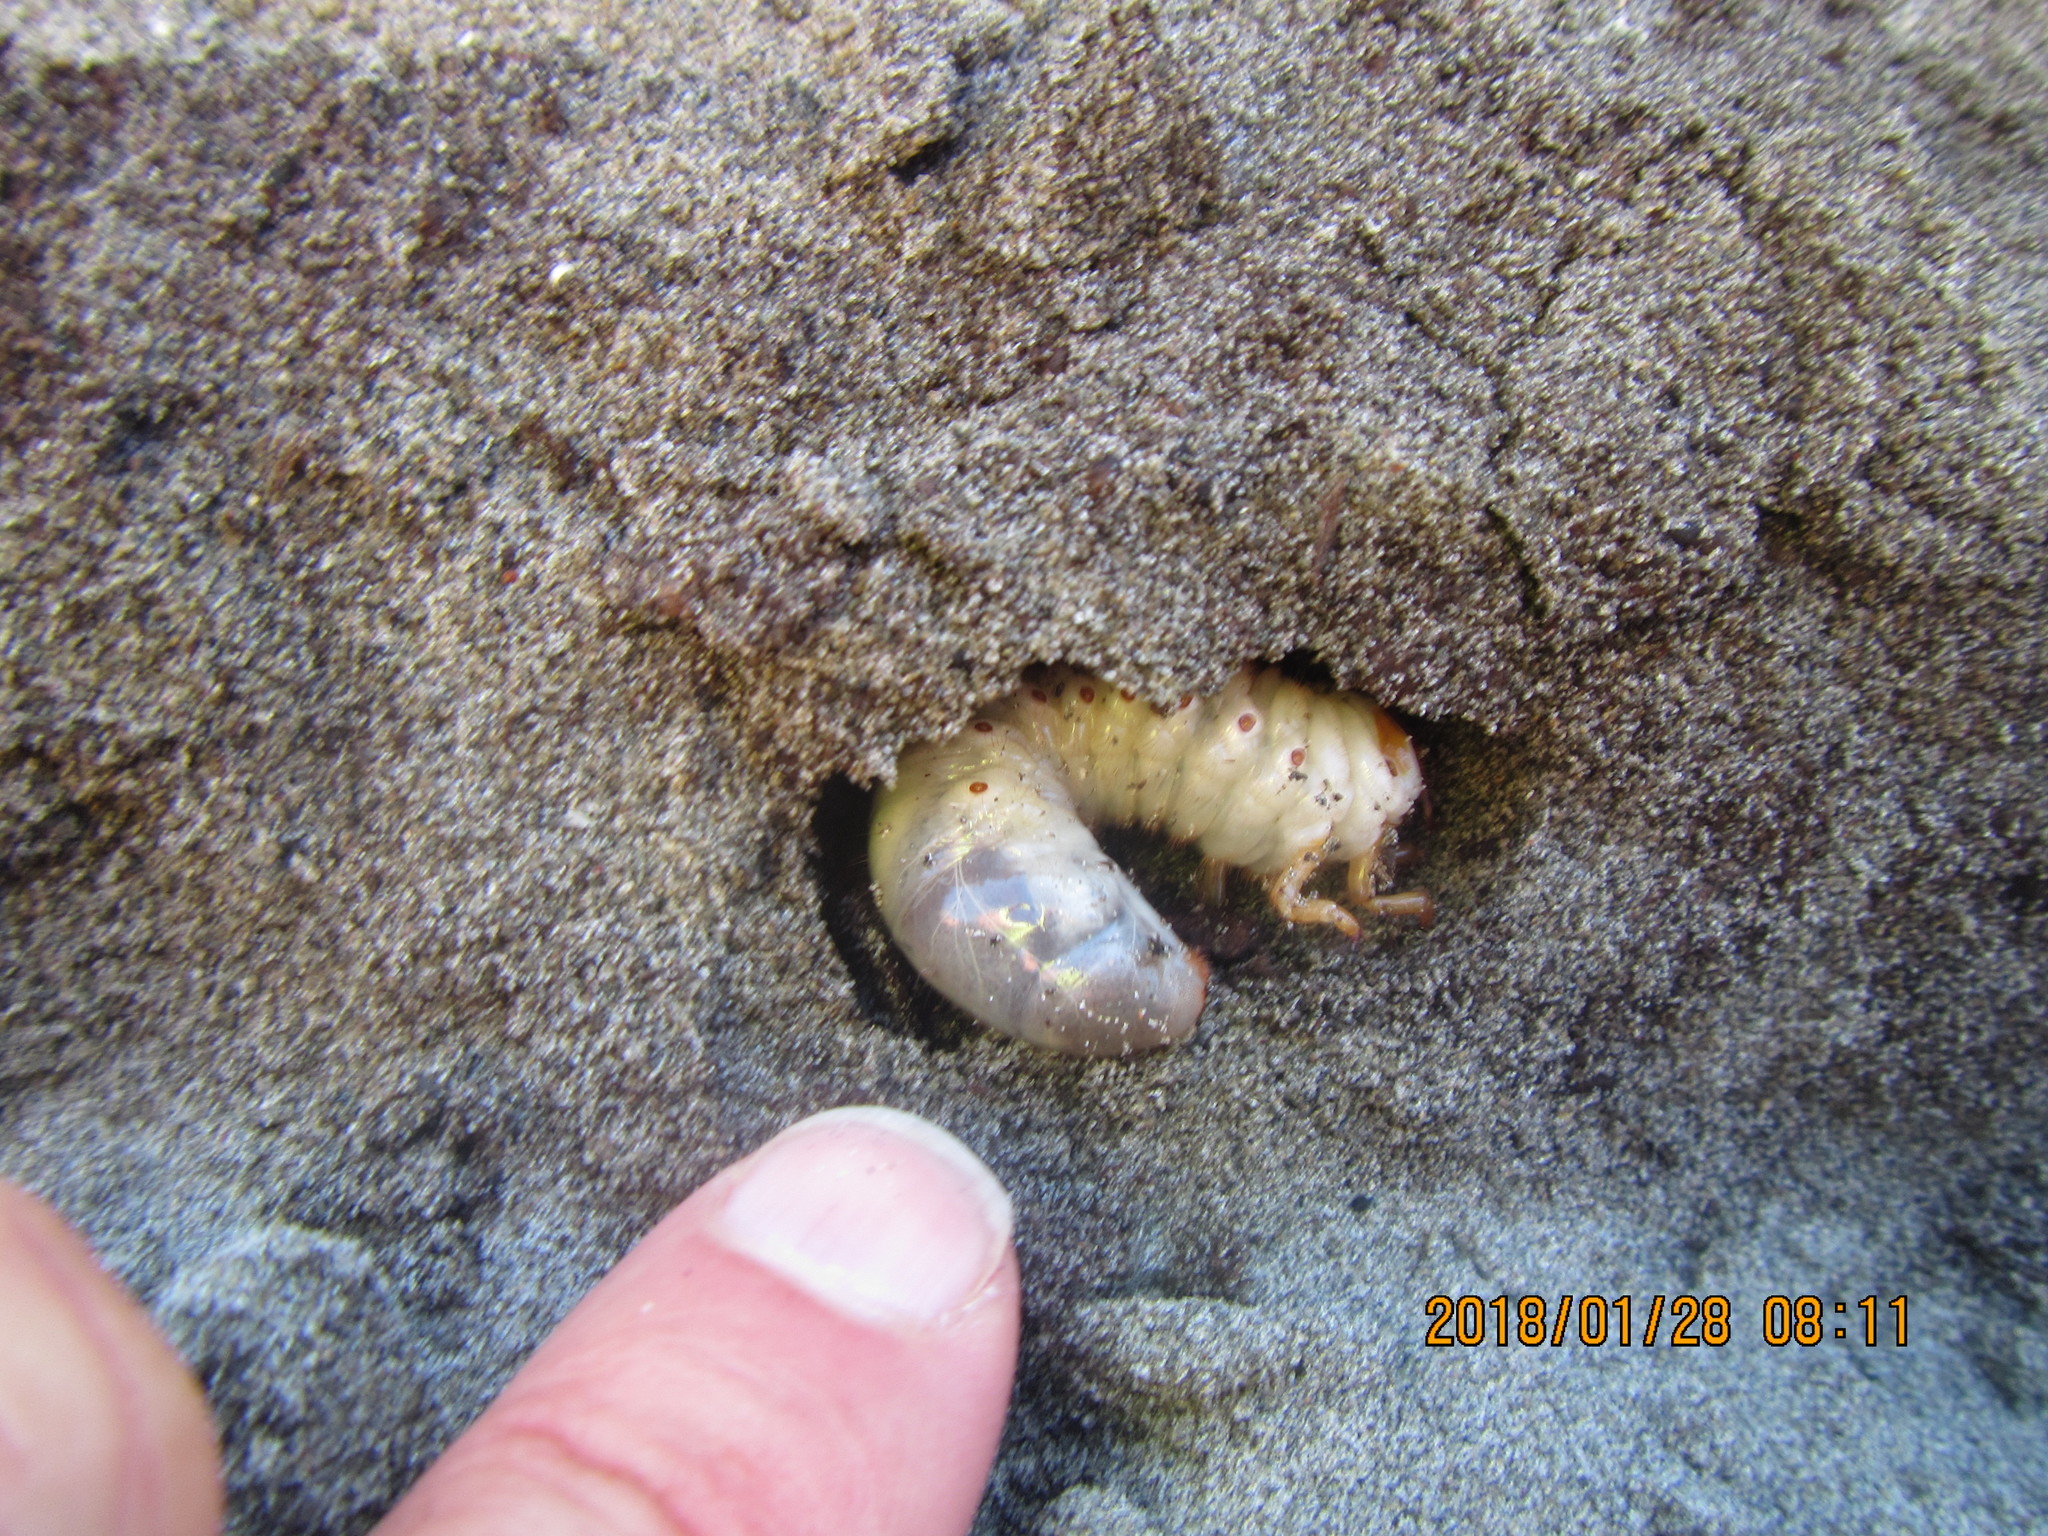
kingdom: Animalia
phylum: Arthropoda
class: Insecta
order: Coleoptera
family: Scarabaeidae
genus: Pericoptus
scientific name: Pericoptus truncatus
